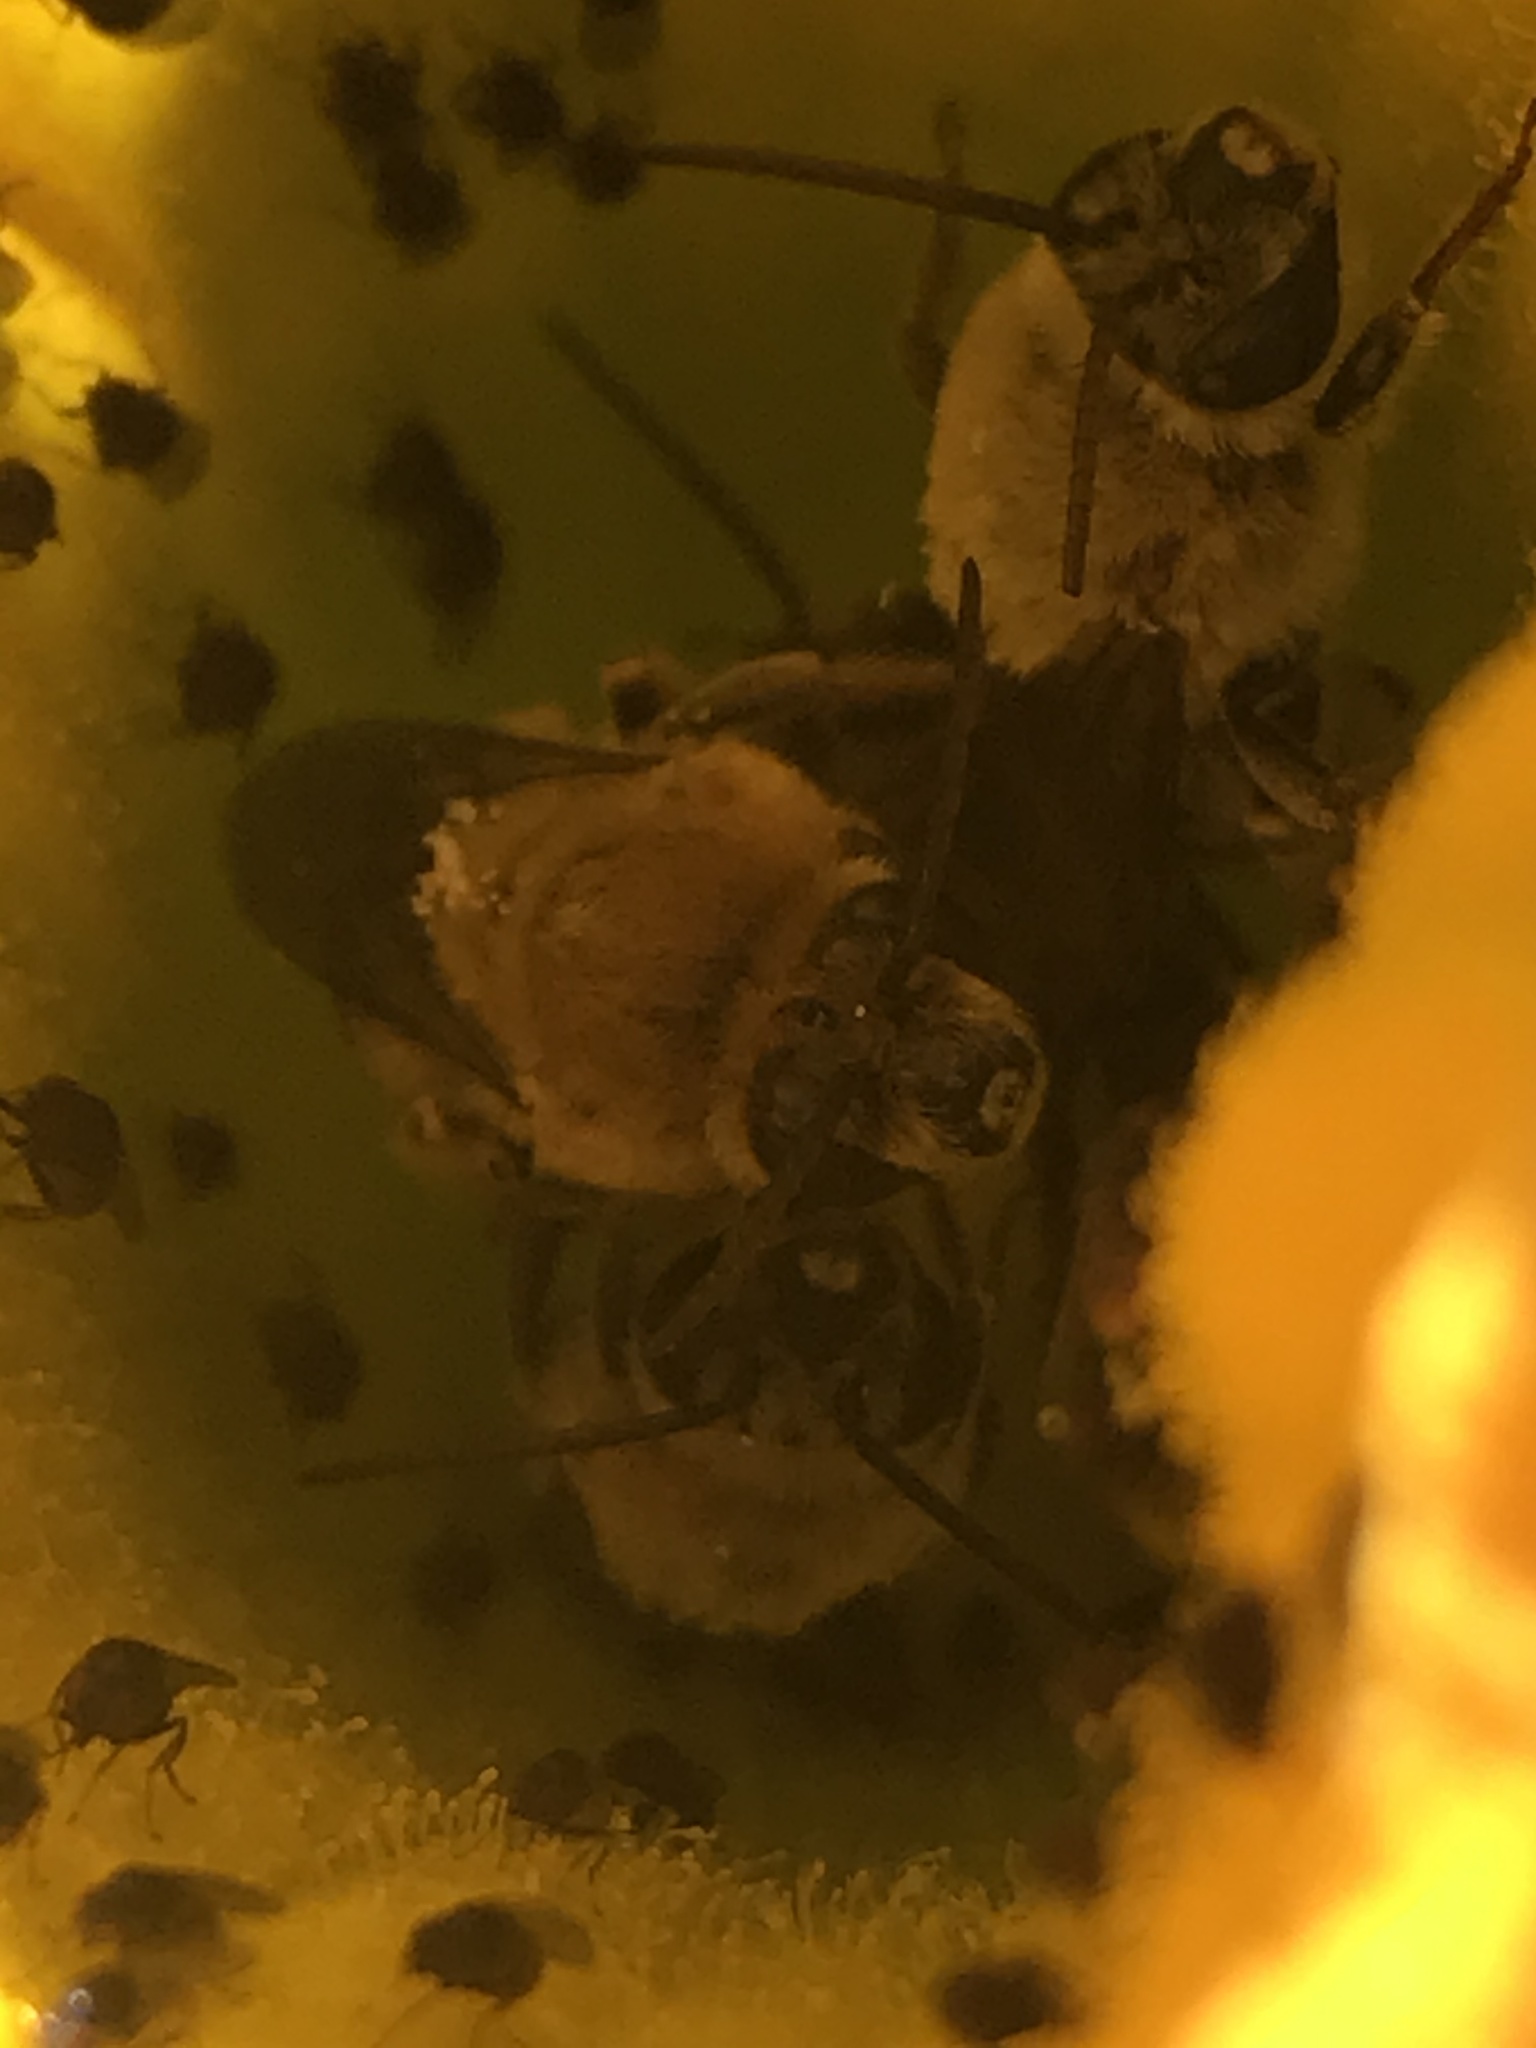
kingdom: Animalia
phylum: Arthropoda
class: Insecta
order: Hymenoptera
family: Apidae
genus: Peponapis
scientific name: Peponapis pruinosa
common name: Pruinose squash bee
